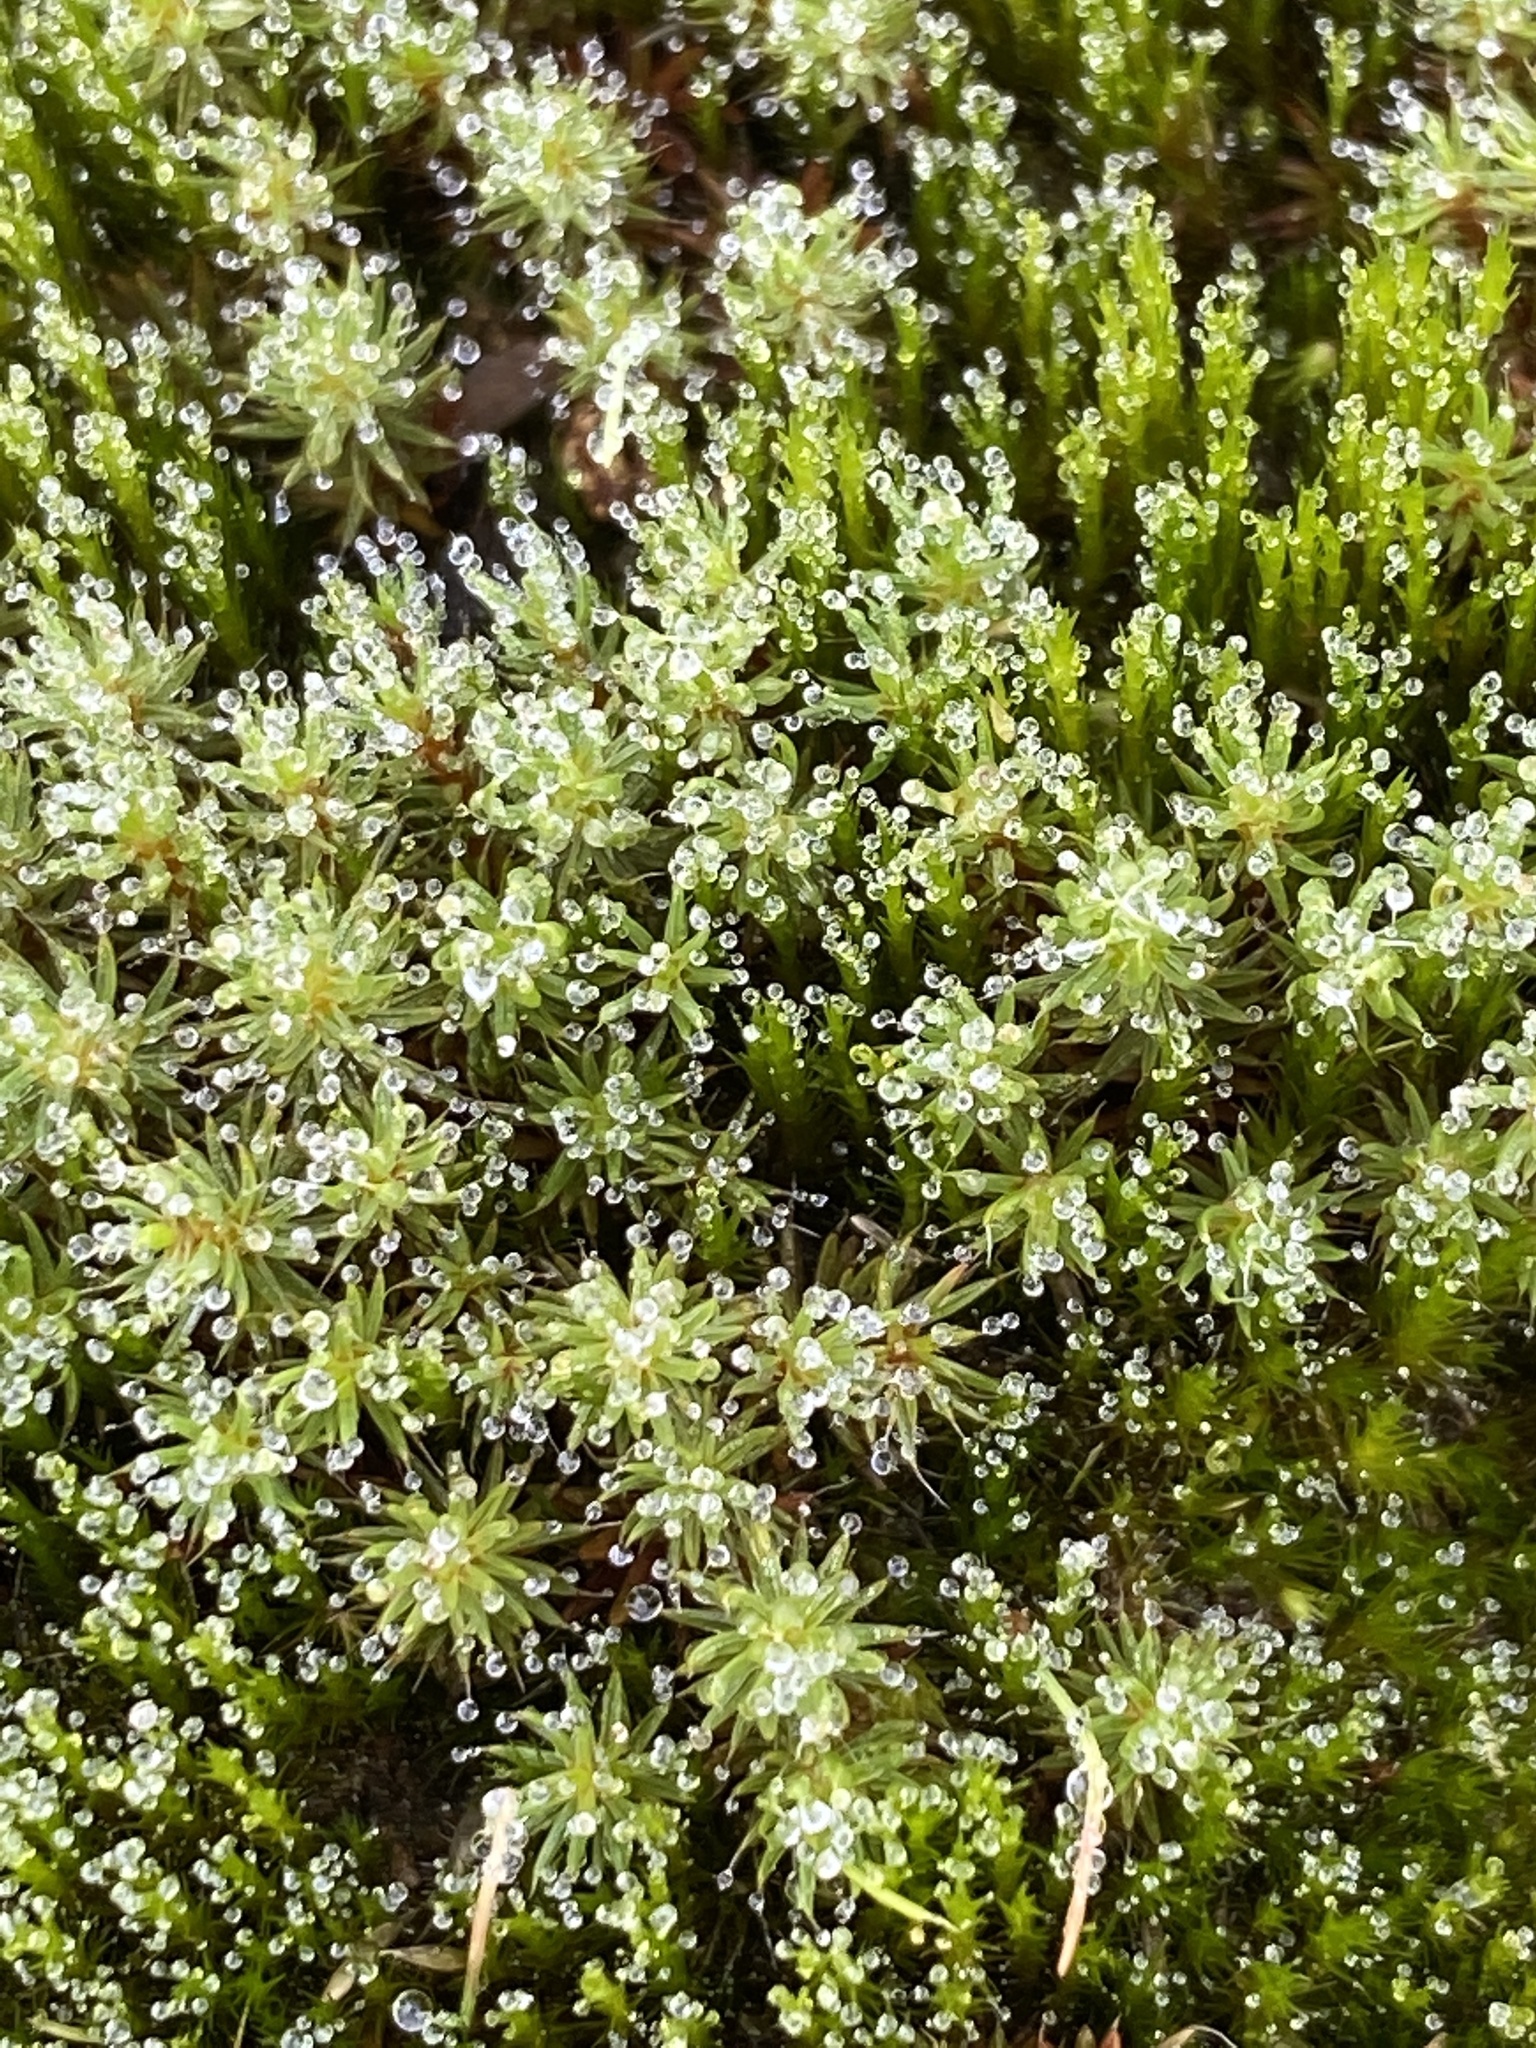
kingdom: Plantae
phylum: Bryophyta
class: Polytrichopsida
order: Polytrichales
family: Polytrichaceae
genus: Polytrichum
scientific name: Polytrichum piliferum
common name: Bristly haircap
